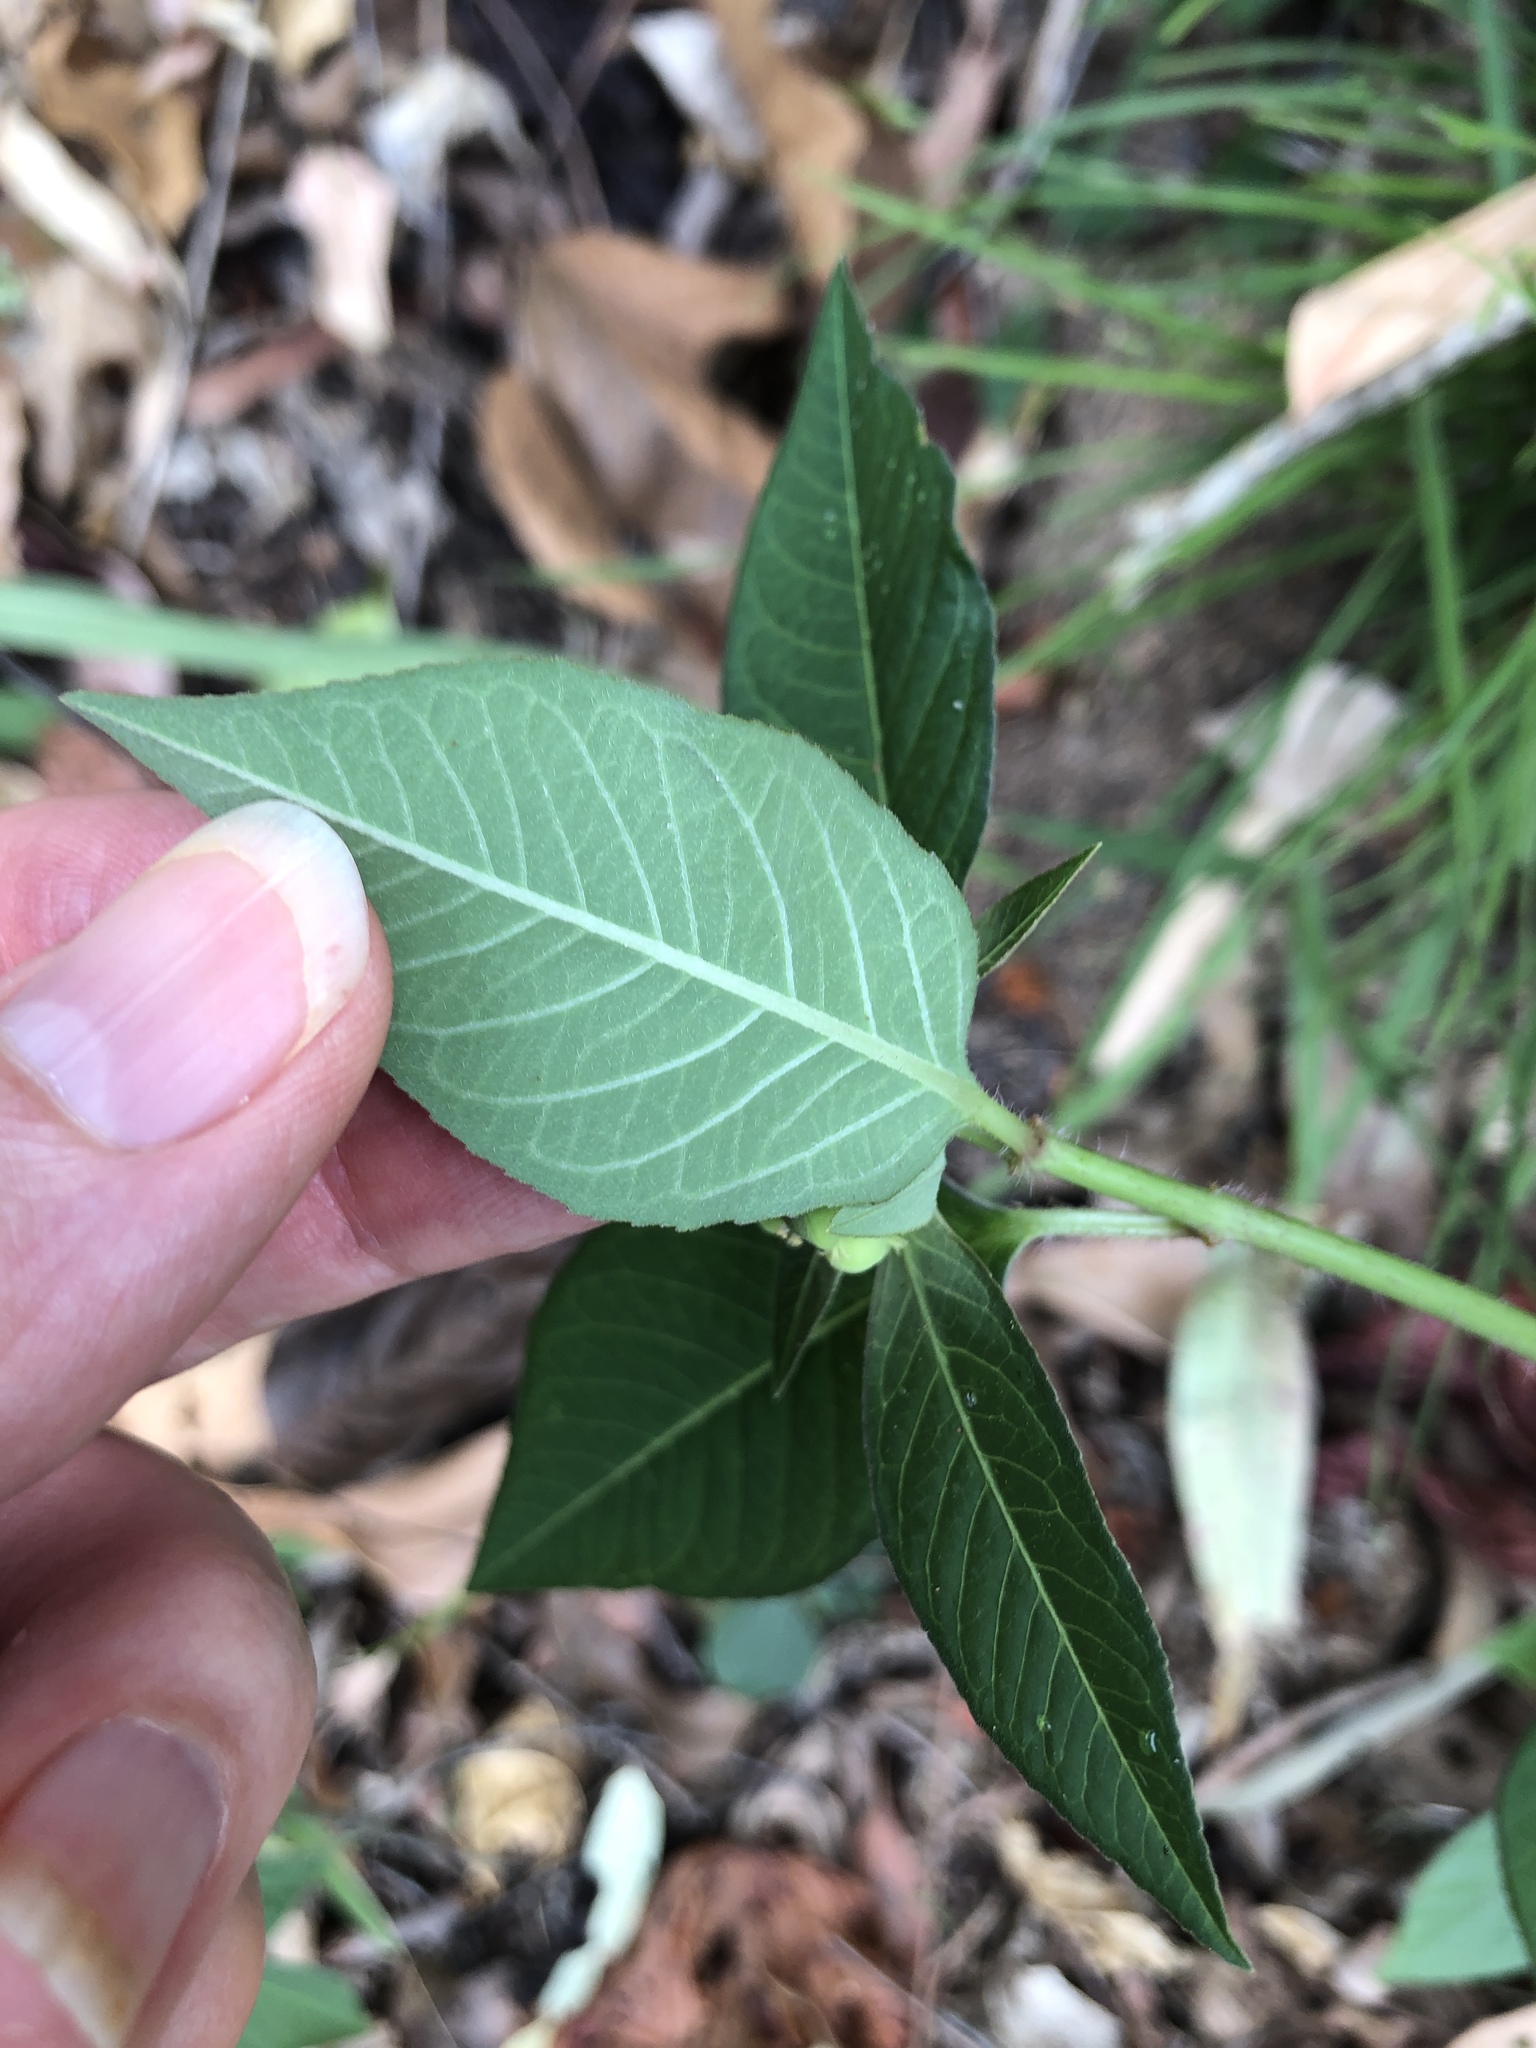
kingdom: Plantae
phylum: Tracheophyta
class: Magnoliopsida
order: Malpighiales
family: Euphorbiaceae
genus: Euphorbia
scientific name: Euphorbia heterophylla
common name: Mexican fireplant
